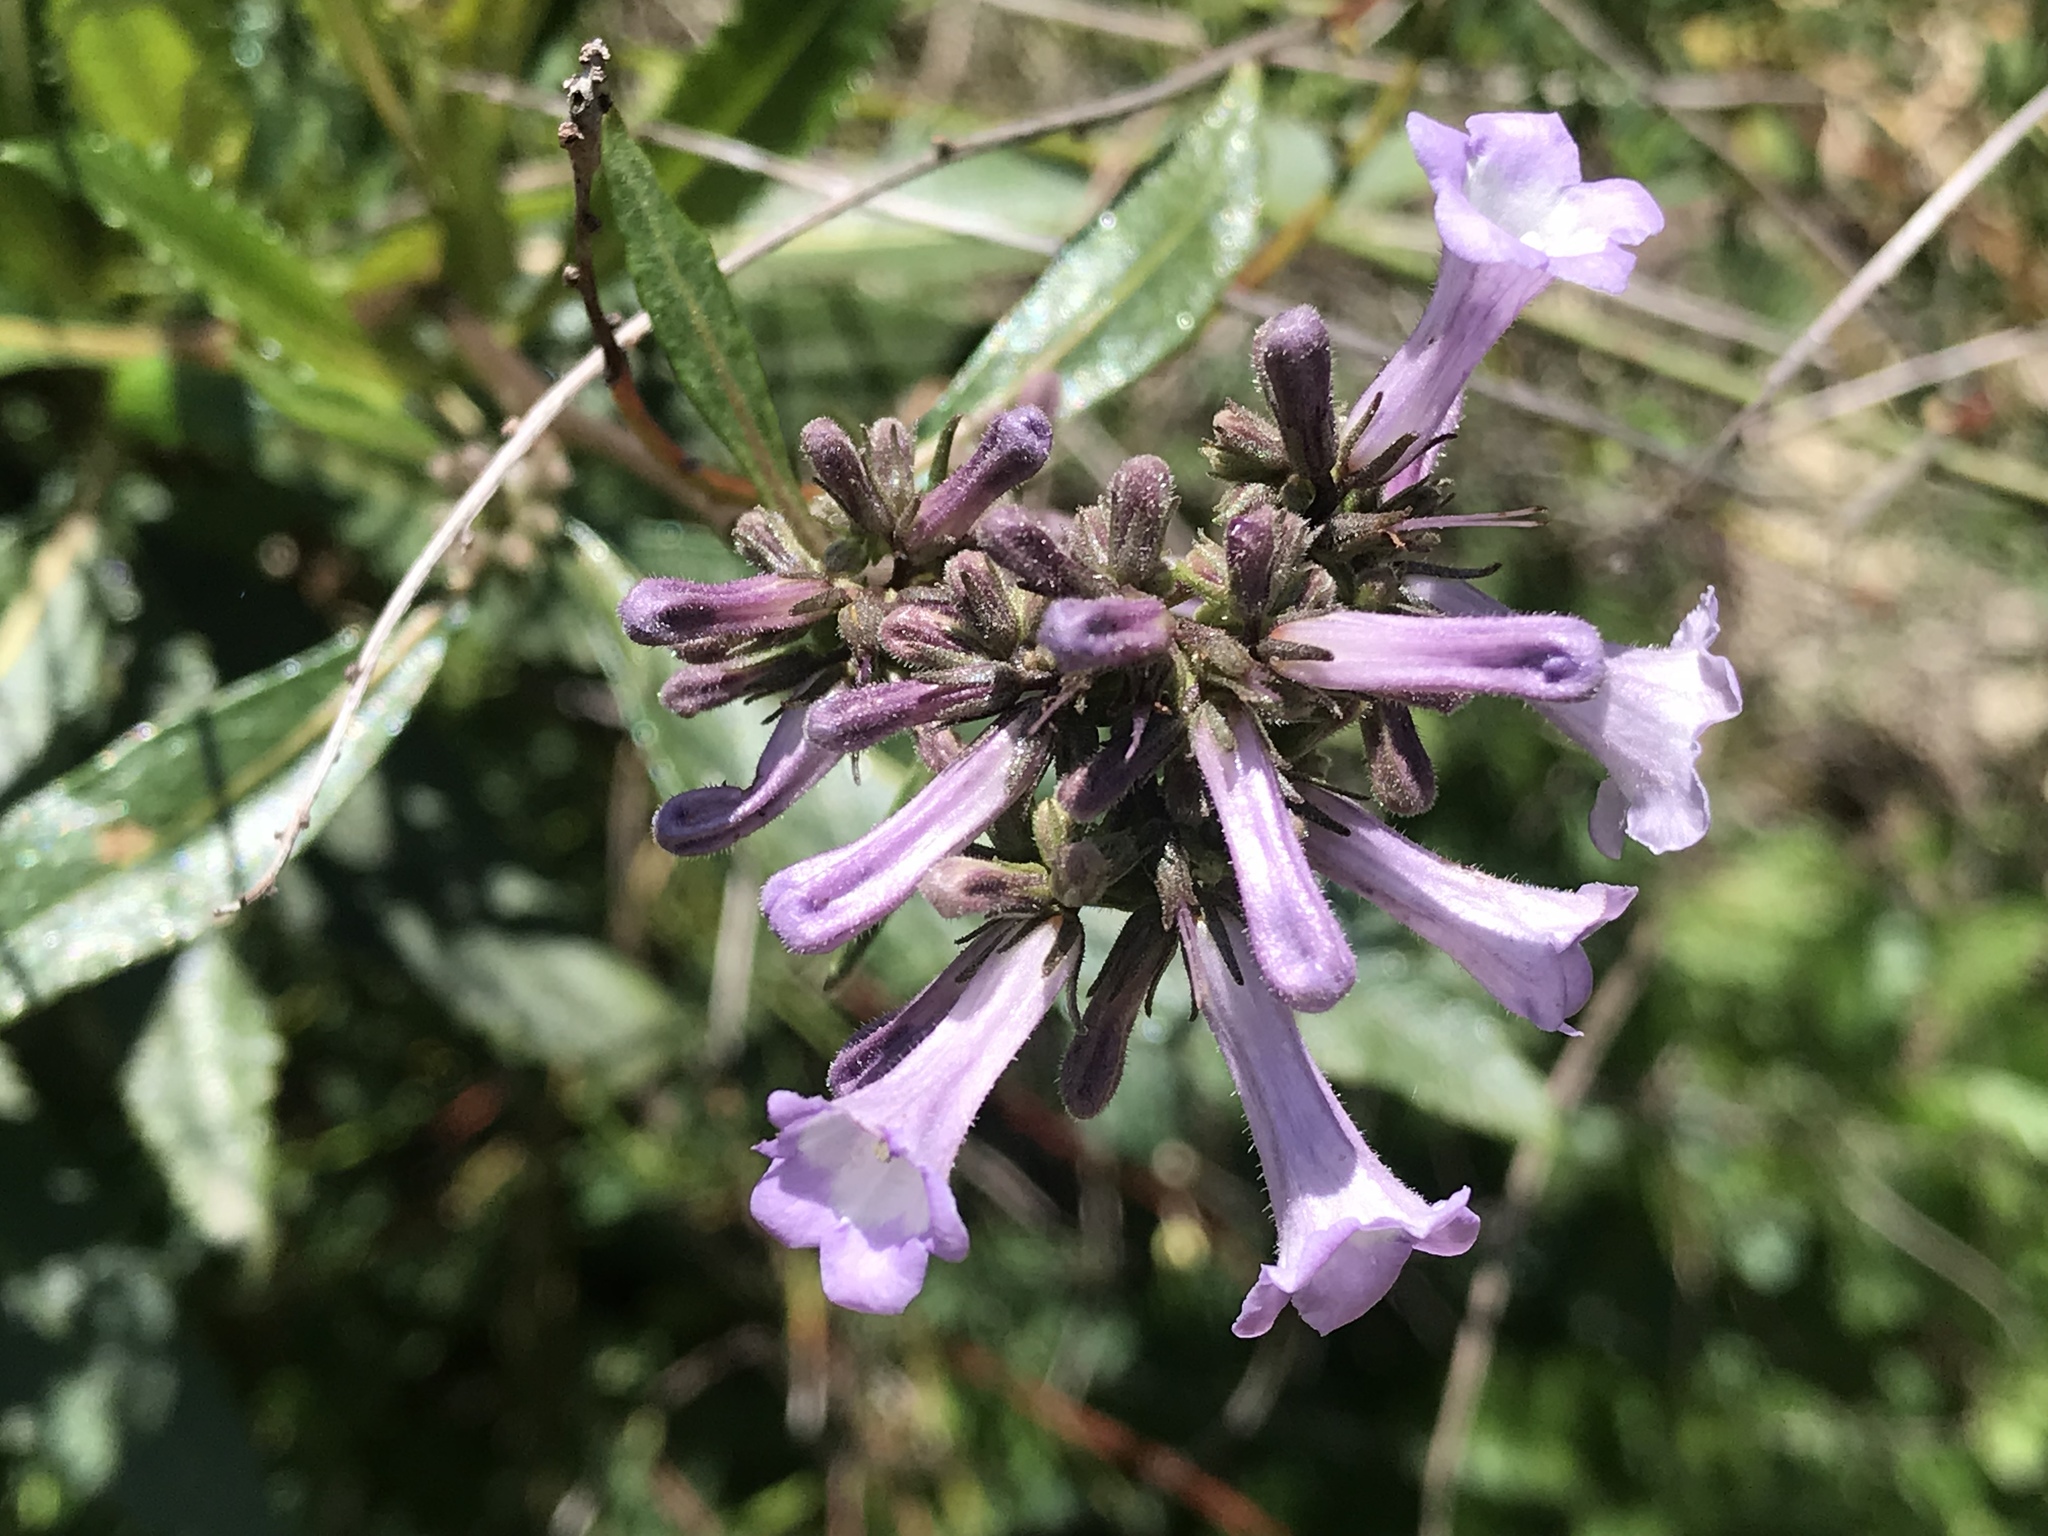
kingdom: Plantae
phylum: Tracheophyta
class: Magnoliopsida
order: Boraginales
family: Namaceae
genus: Eriodictyon
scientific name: Eriodictyon californicum
